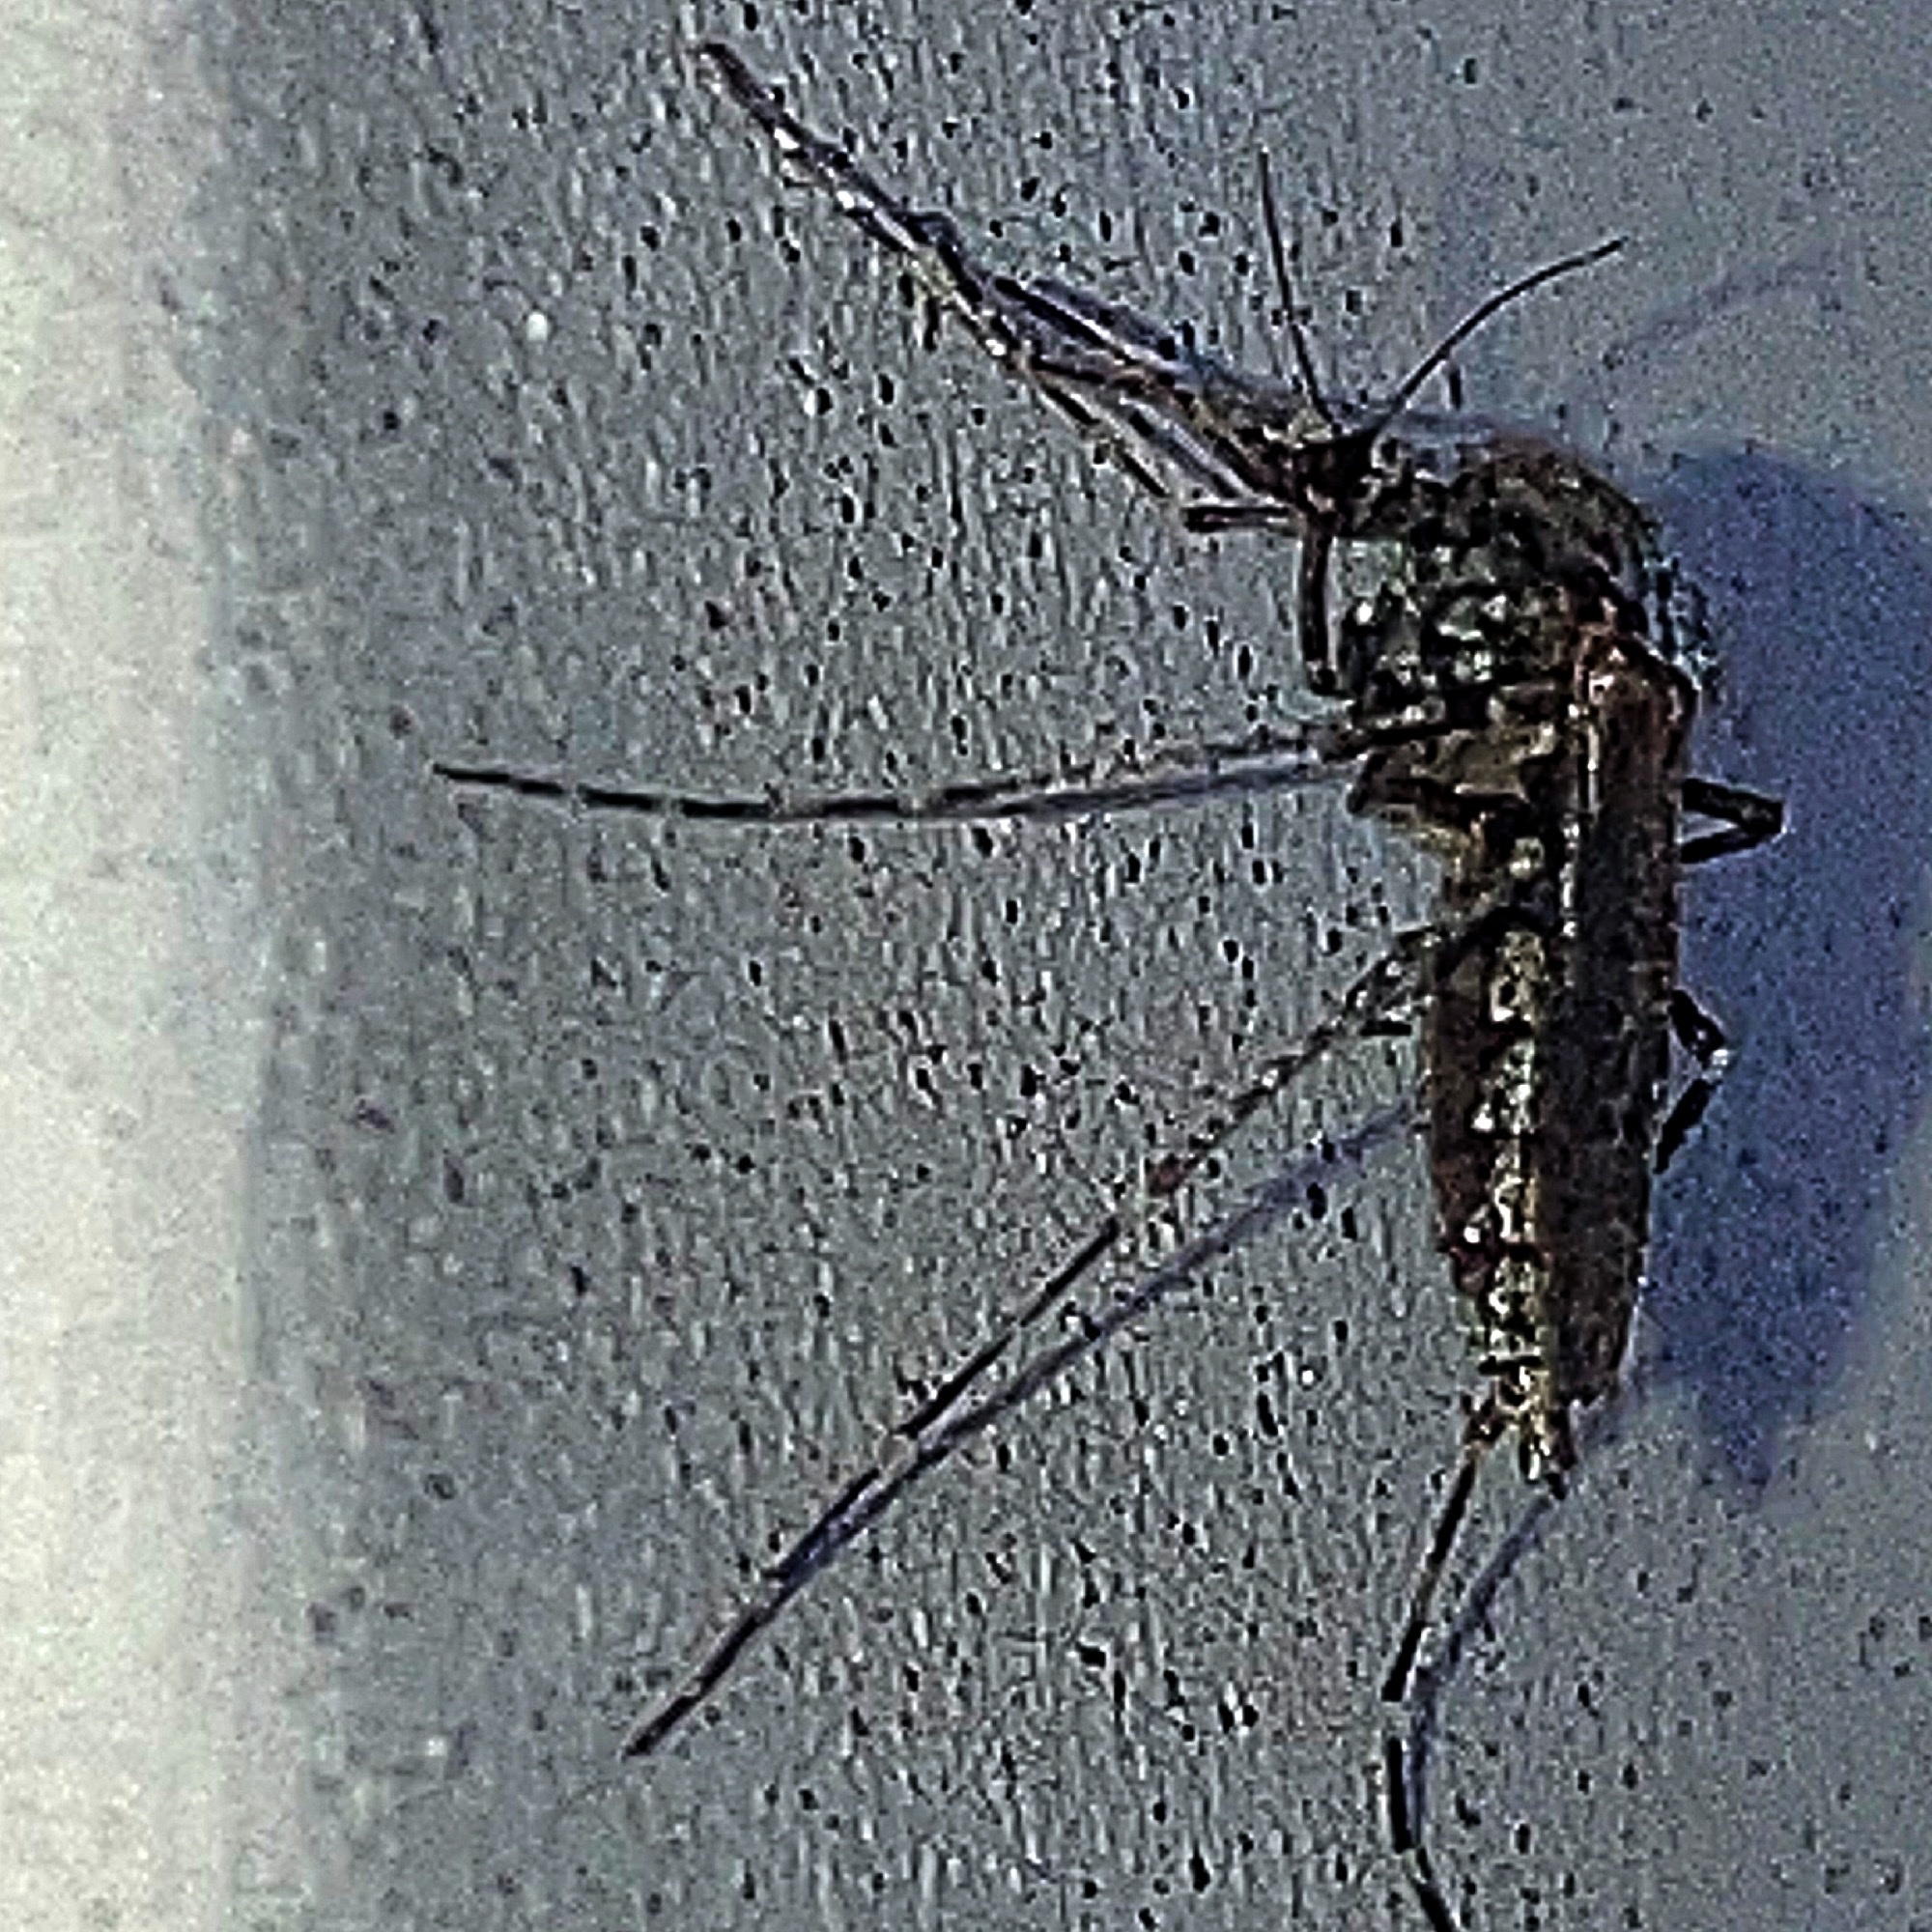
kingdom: Animalia
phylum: Arthropoda
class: Insecta
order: Diptera
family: Culicidae
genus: Psorophora
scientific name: Psorophora columbiae
